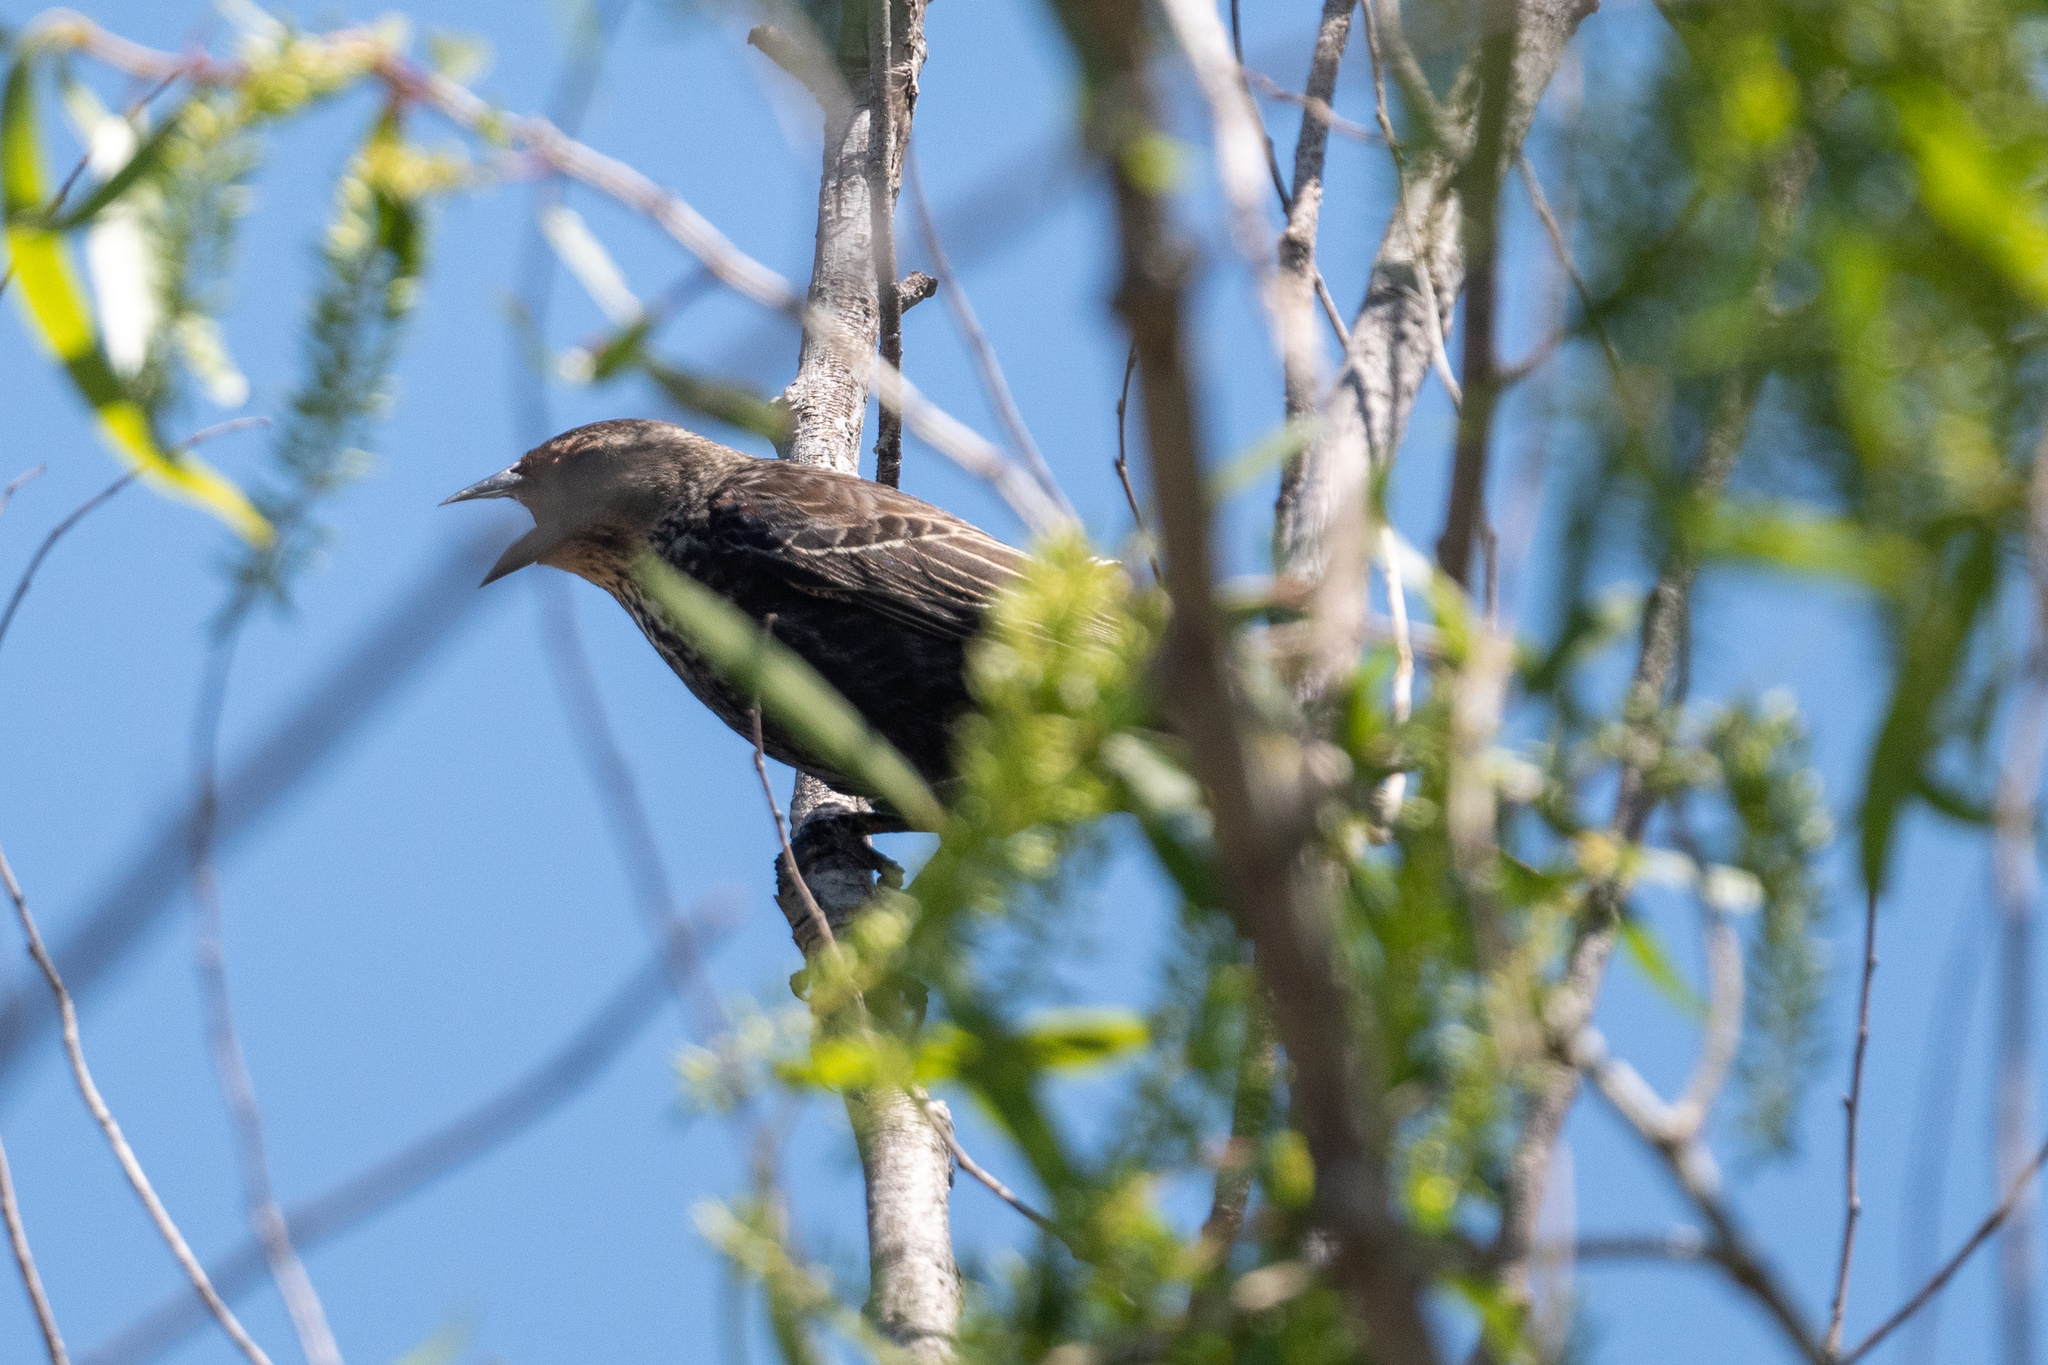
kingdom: Animalia
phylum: Chordata
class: Aves
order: Passeriformes
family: Icteridae
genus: Agelaius
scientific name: Agelaius phoeniceus
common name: Red-winged blackbird
